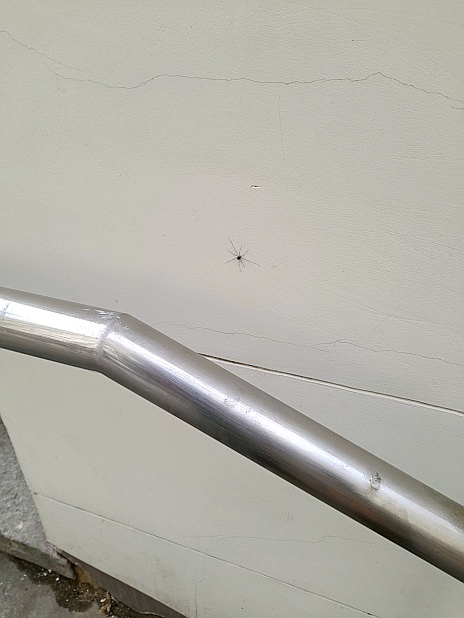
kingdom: Animalia
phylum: Arthropoda
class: Arachnida
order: Opiliones
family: Phalangiidae
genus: Phalangium
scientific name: Phalangium opilio
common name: Daddy longleg
